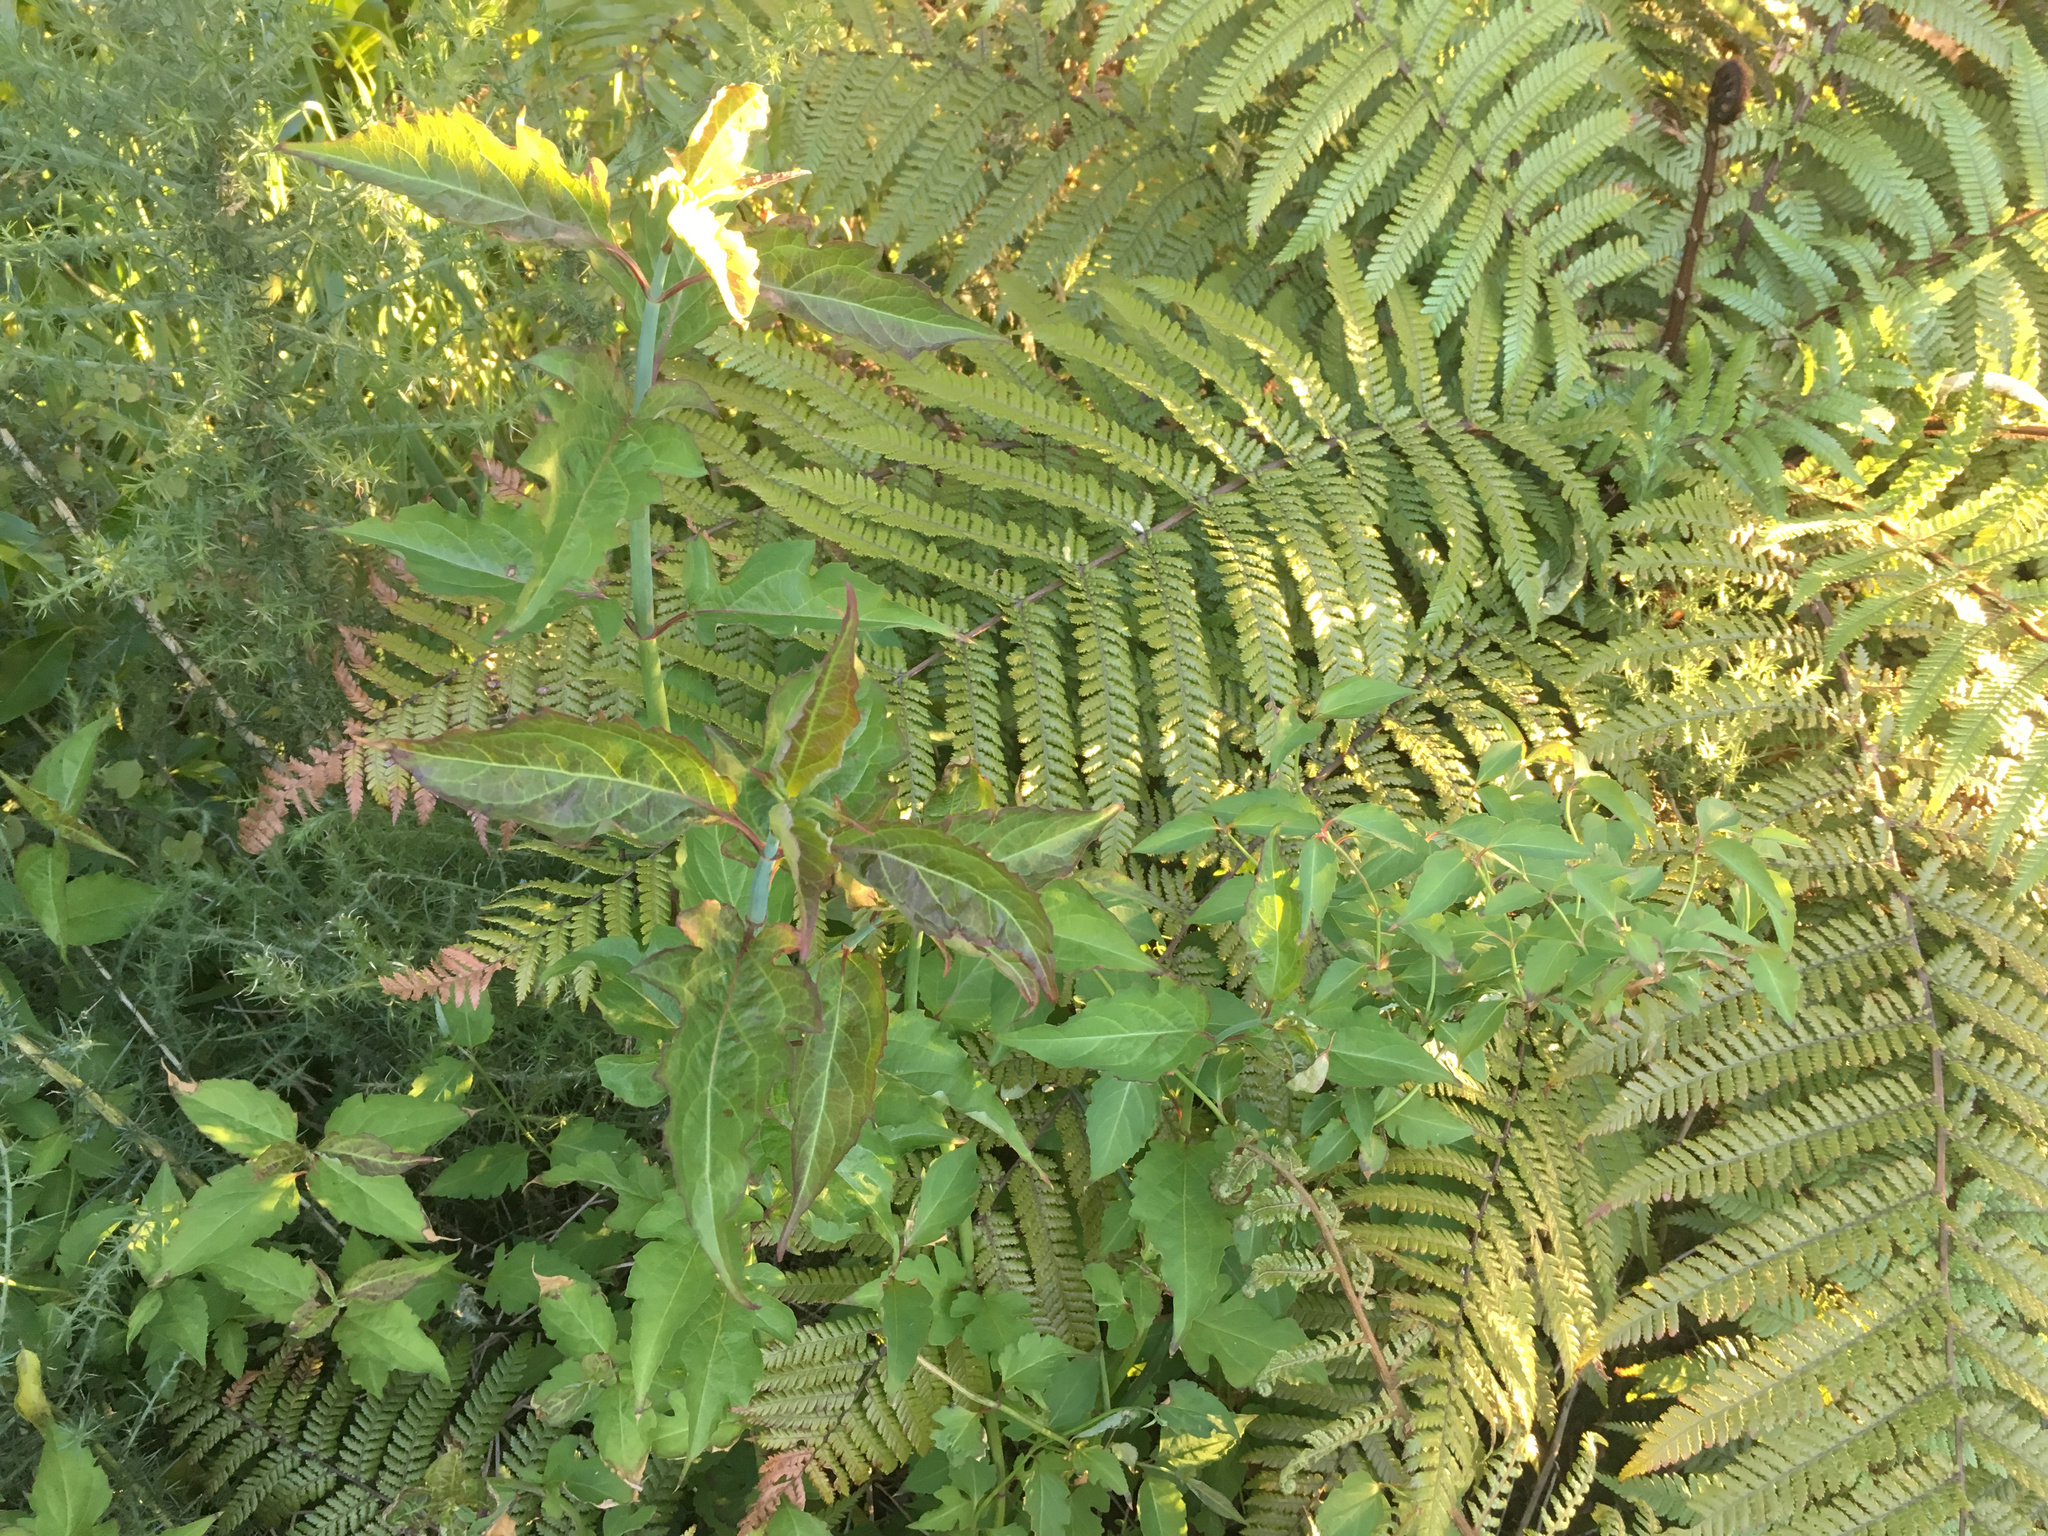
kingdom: Plantae
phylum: Tracheophyta
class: Magnoliopsida
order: Dipsacales
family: Caprifoliaceae
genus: Leycesteria
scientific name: Leycesteria formosa
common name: Himalayan honeysuckle
